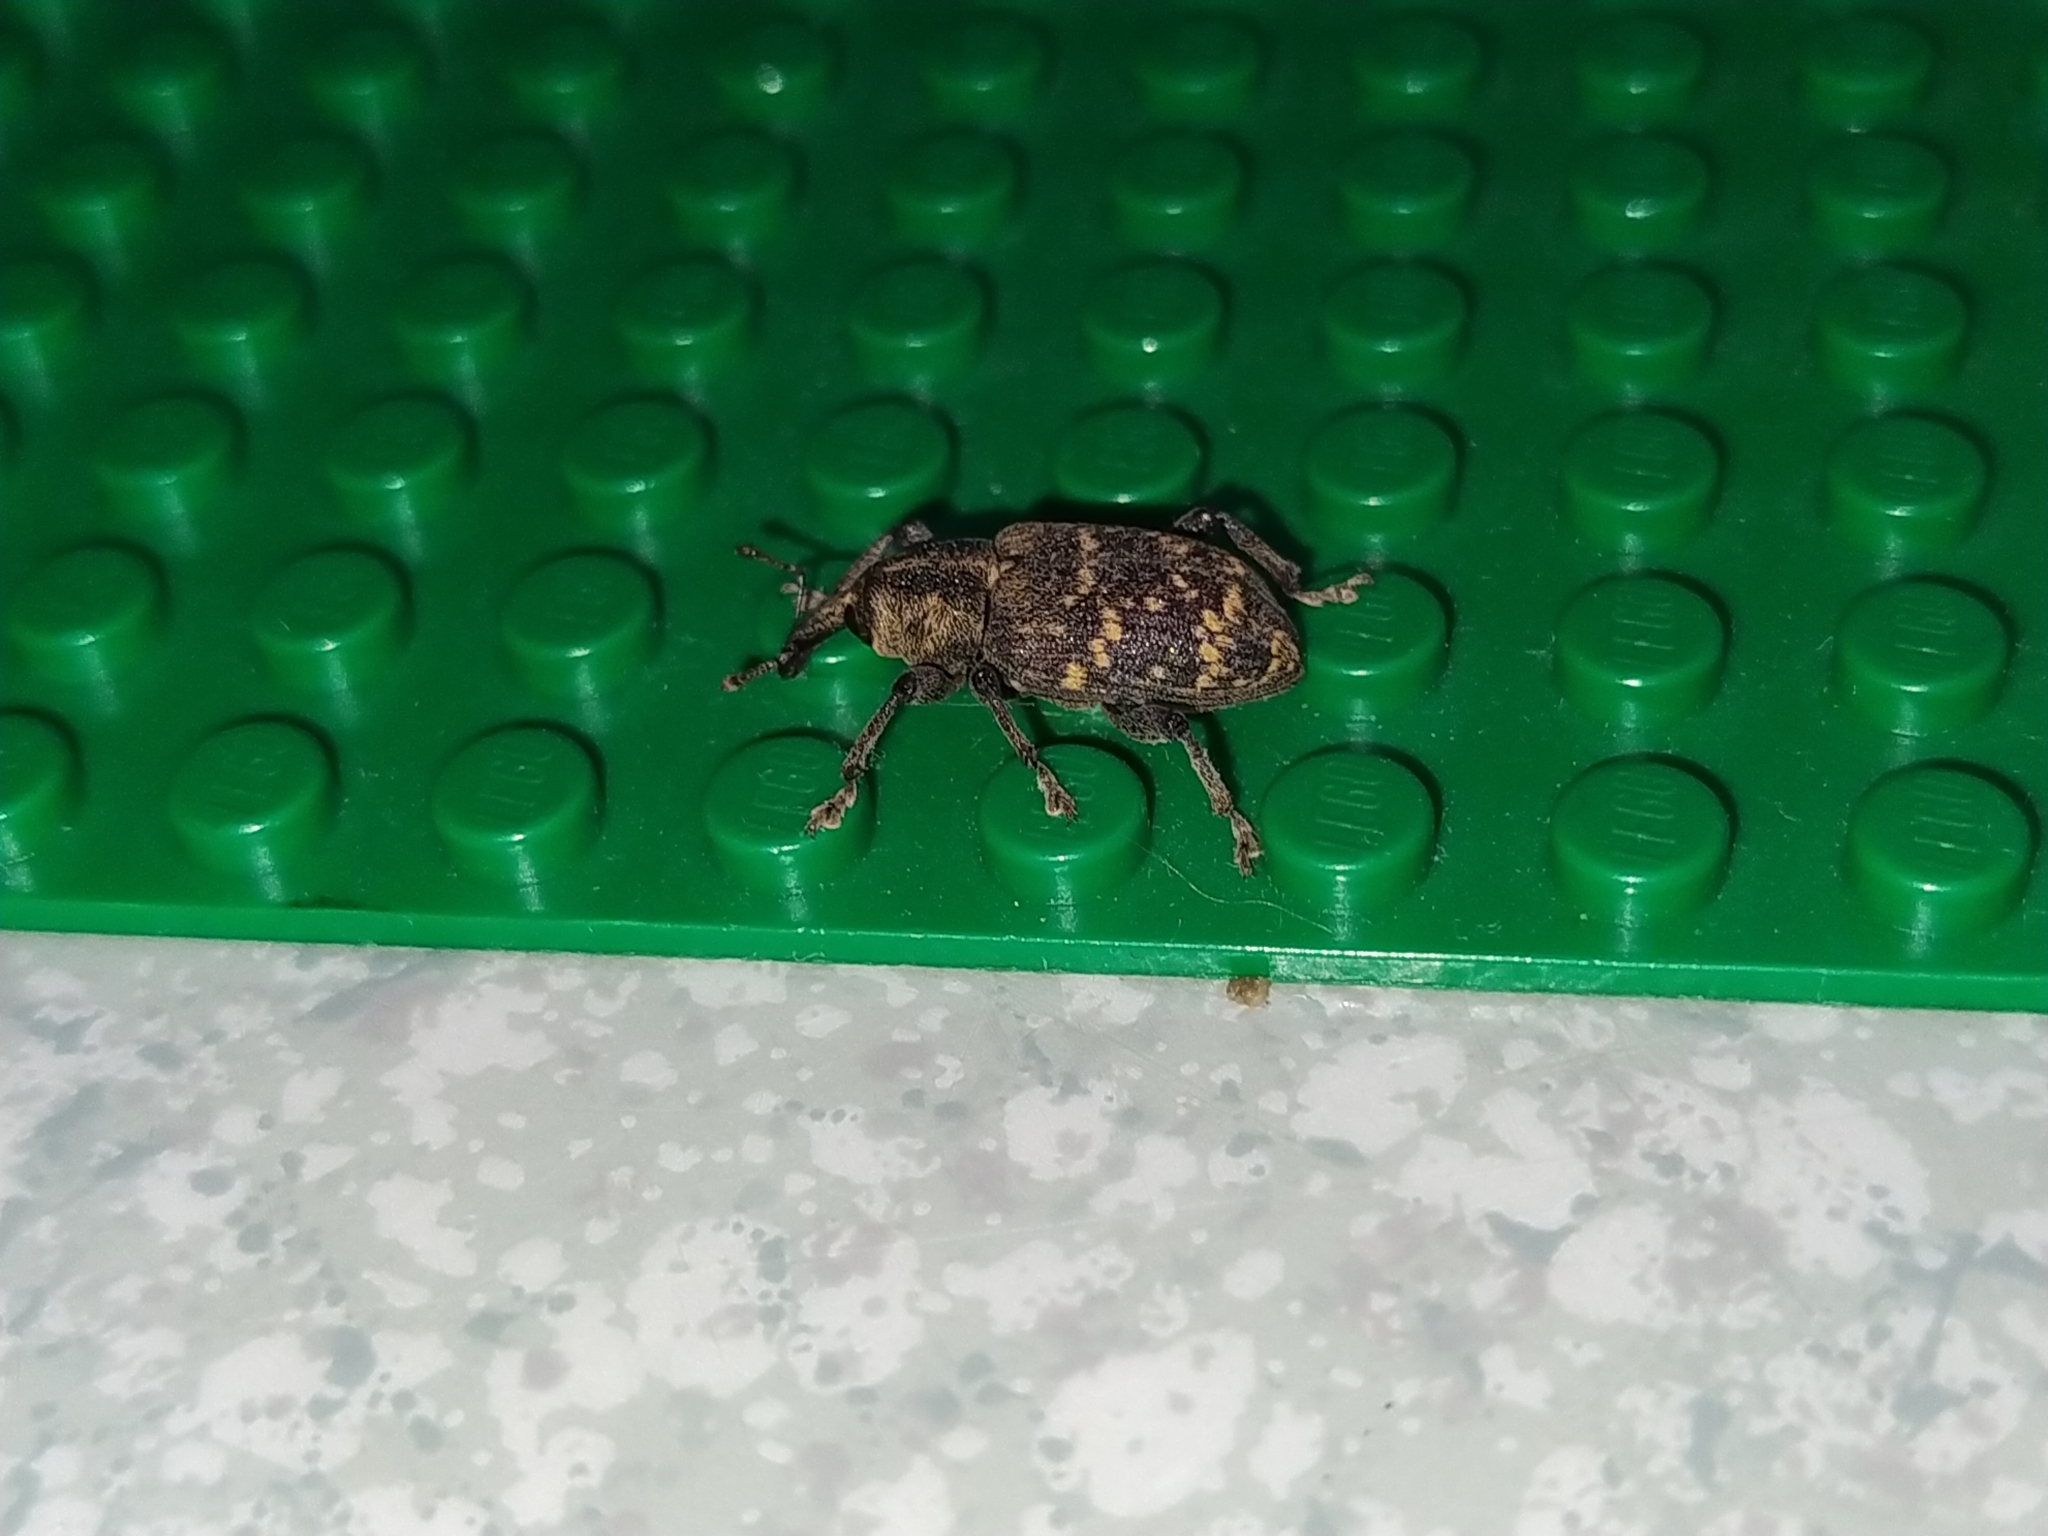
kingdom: Animalia
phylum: Arthropoda
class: Insecta
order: Coleoptera
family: Curculionidae
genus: Hylobius
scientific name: Hylobius abietis
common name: Large pine weevil
